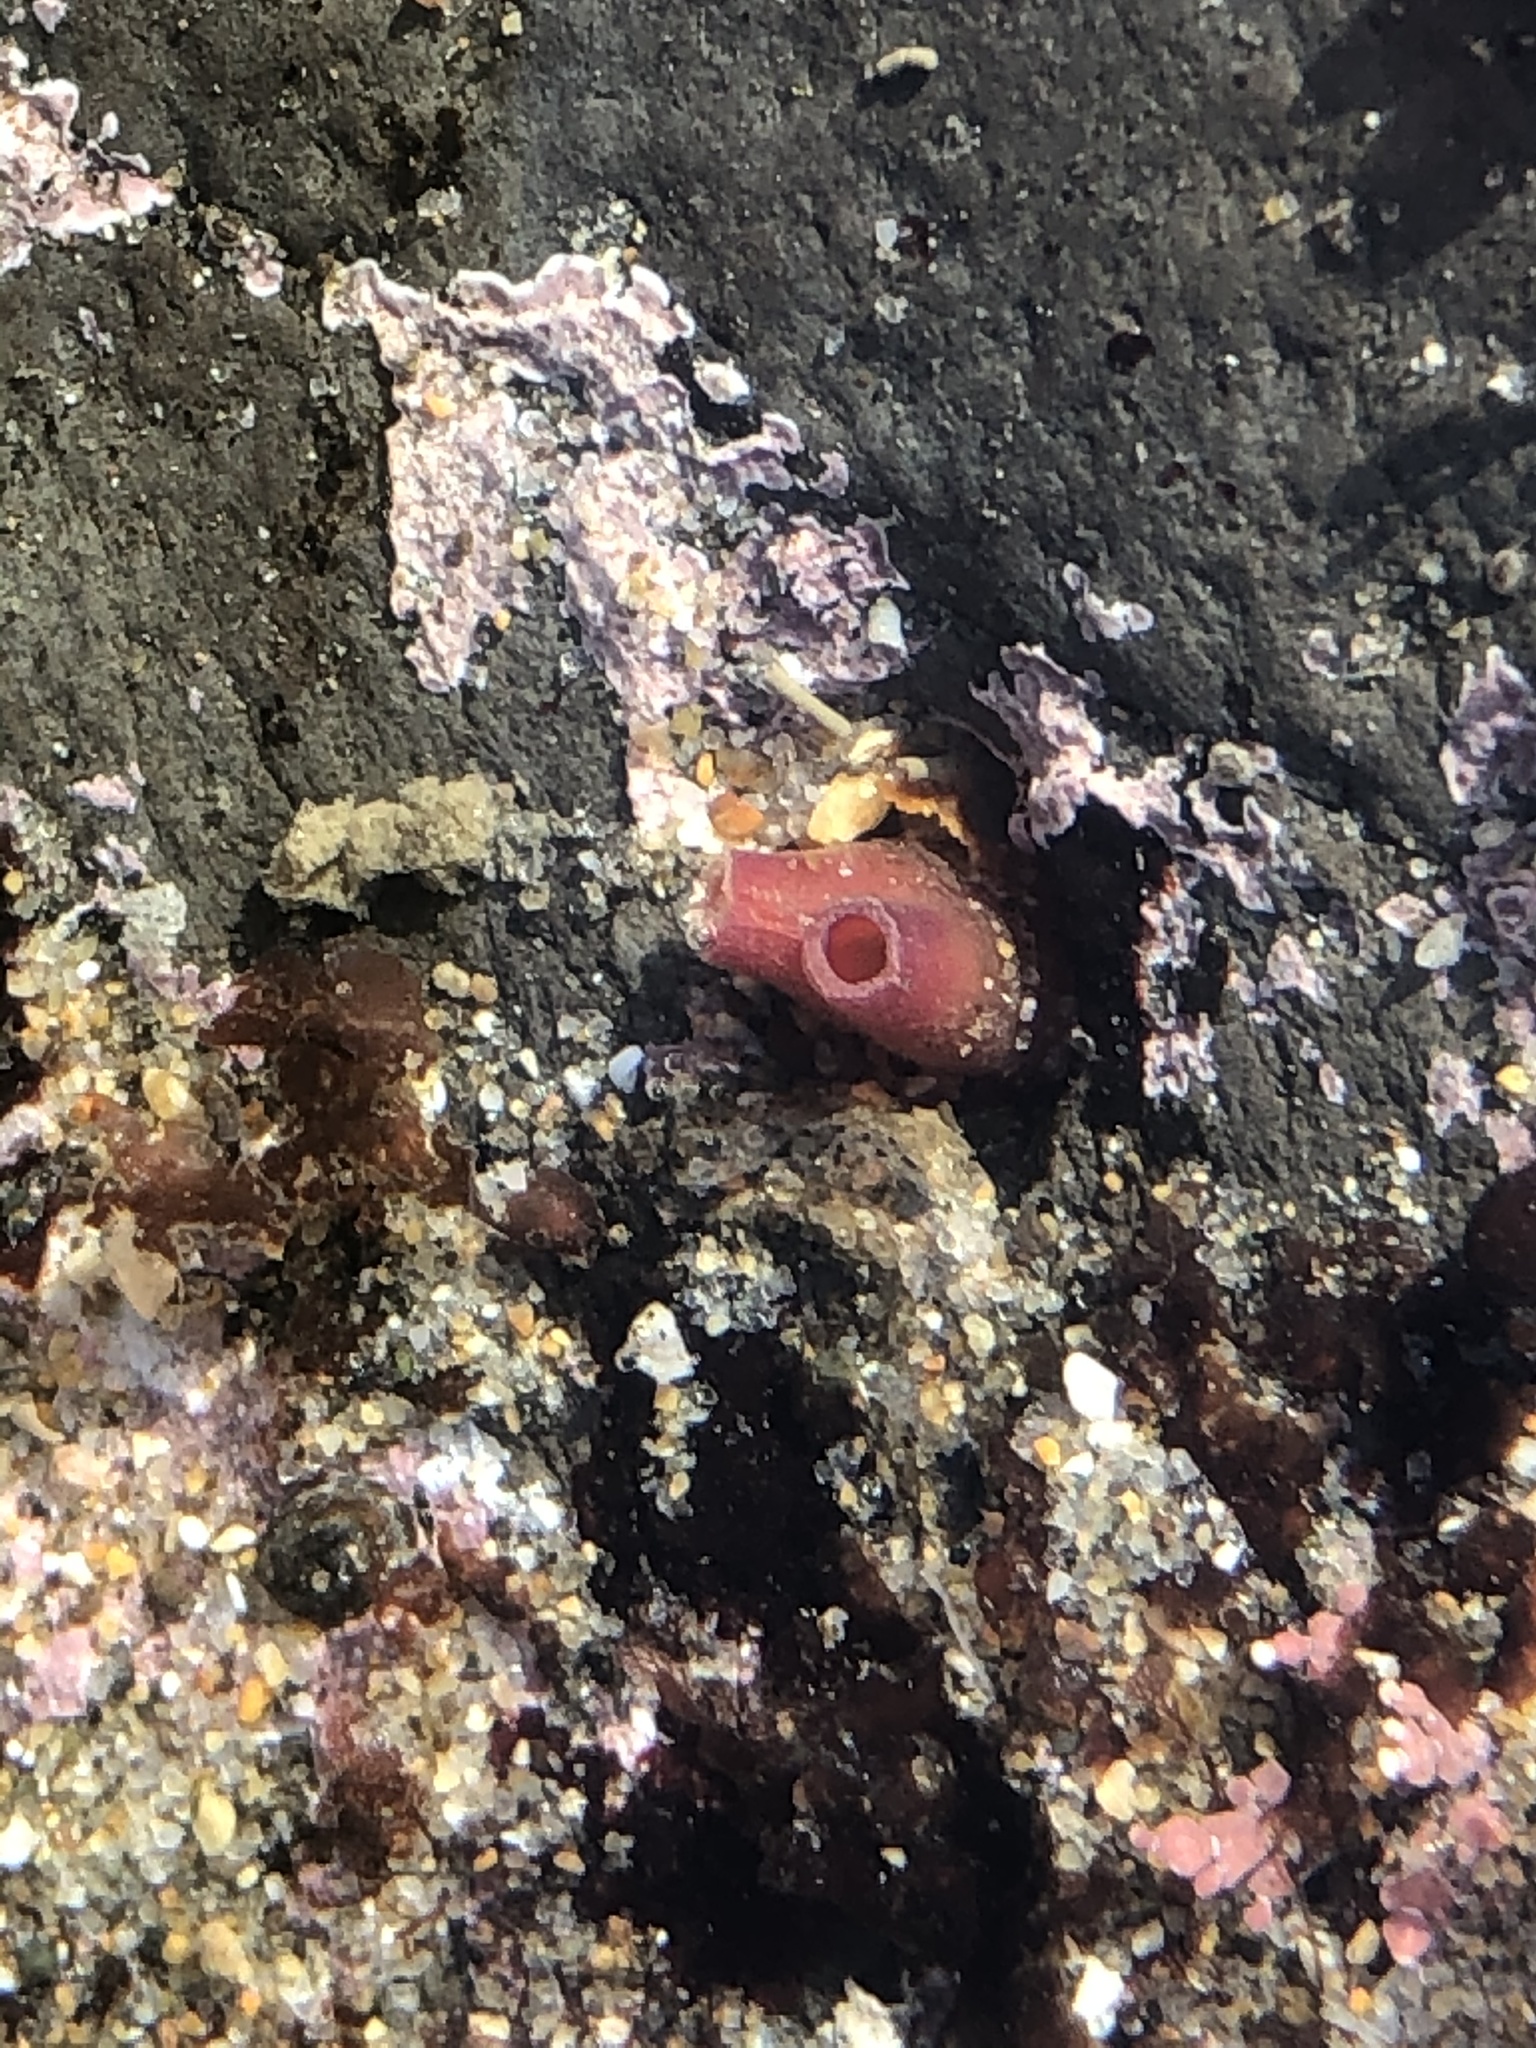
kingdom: Animalia
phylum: Mollusca
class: Bivalvia
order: Adapedonta
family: Hiatellidae
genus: Hiatella
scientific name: Hiatella arctica
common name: Arctic hiatella
